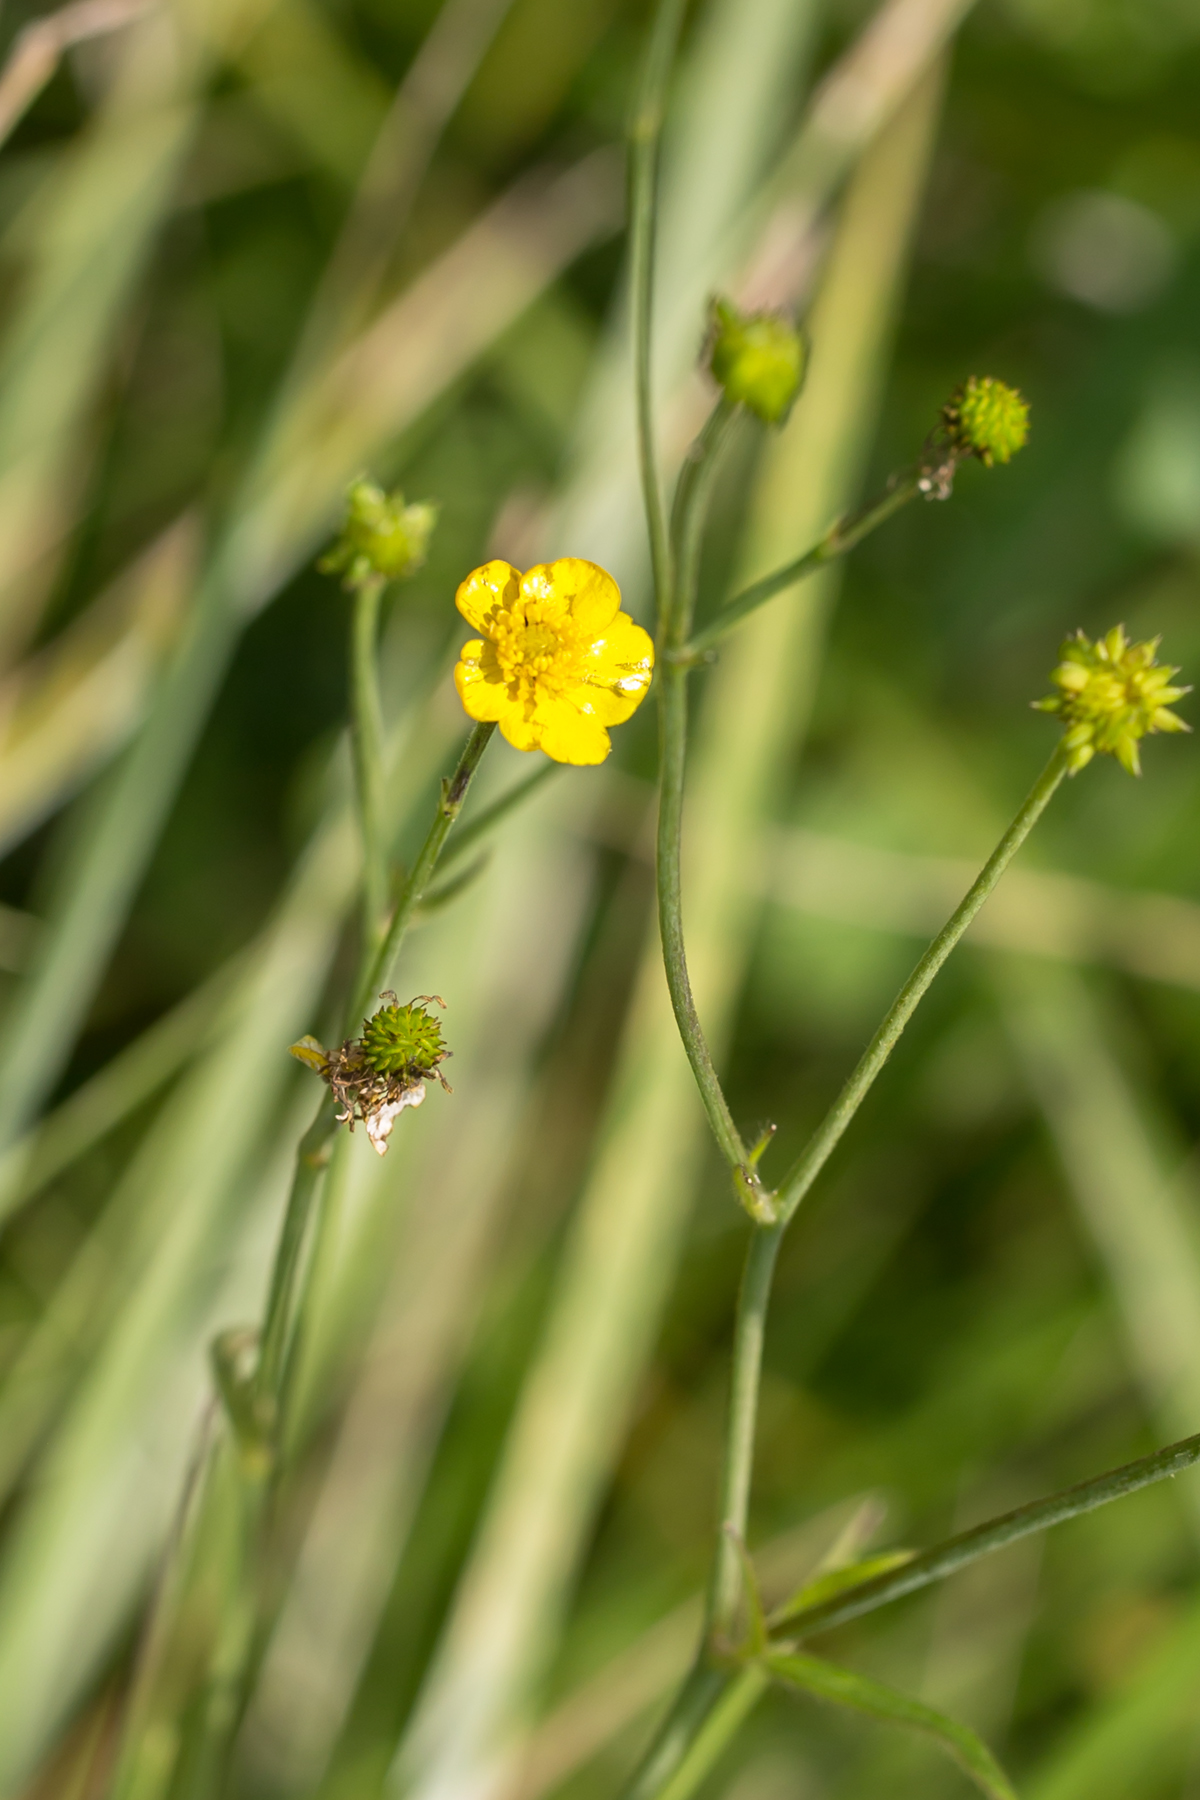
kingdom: Plantae
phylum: Tracheophyta
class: Magnoliopsida
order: Ranunculales
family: Ranunculaceae
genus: Ranunculus
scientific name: Ranunculus acris
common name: Meadow buttercup
